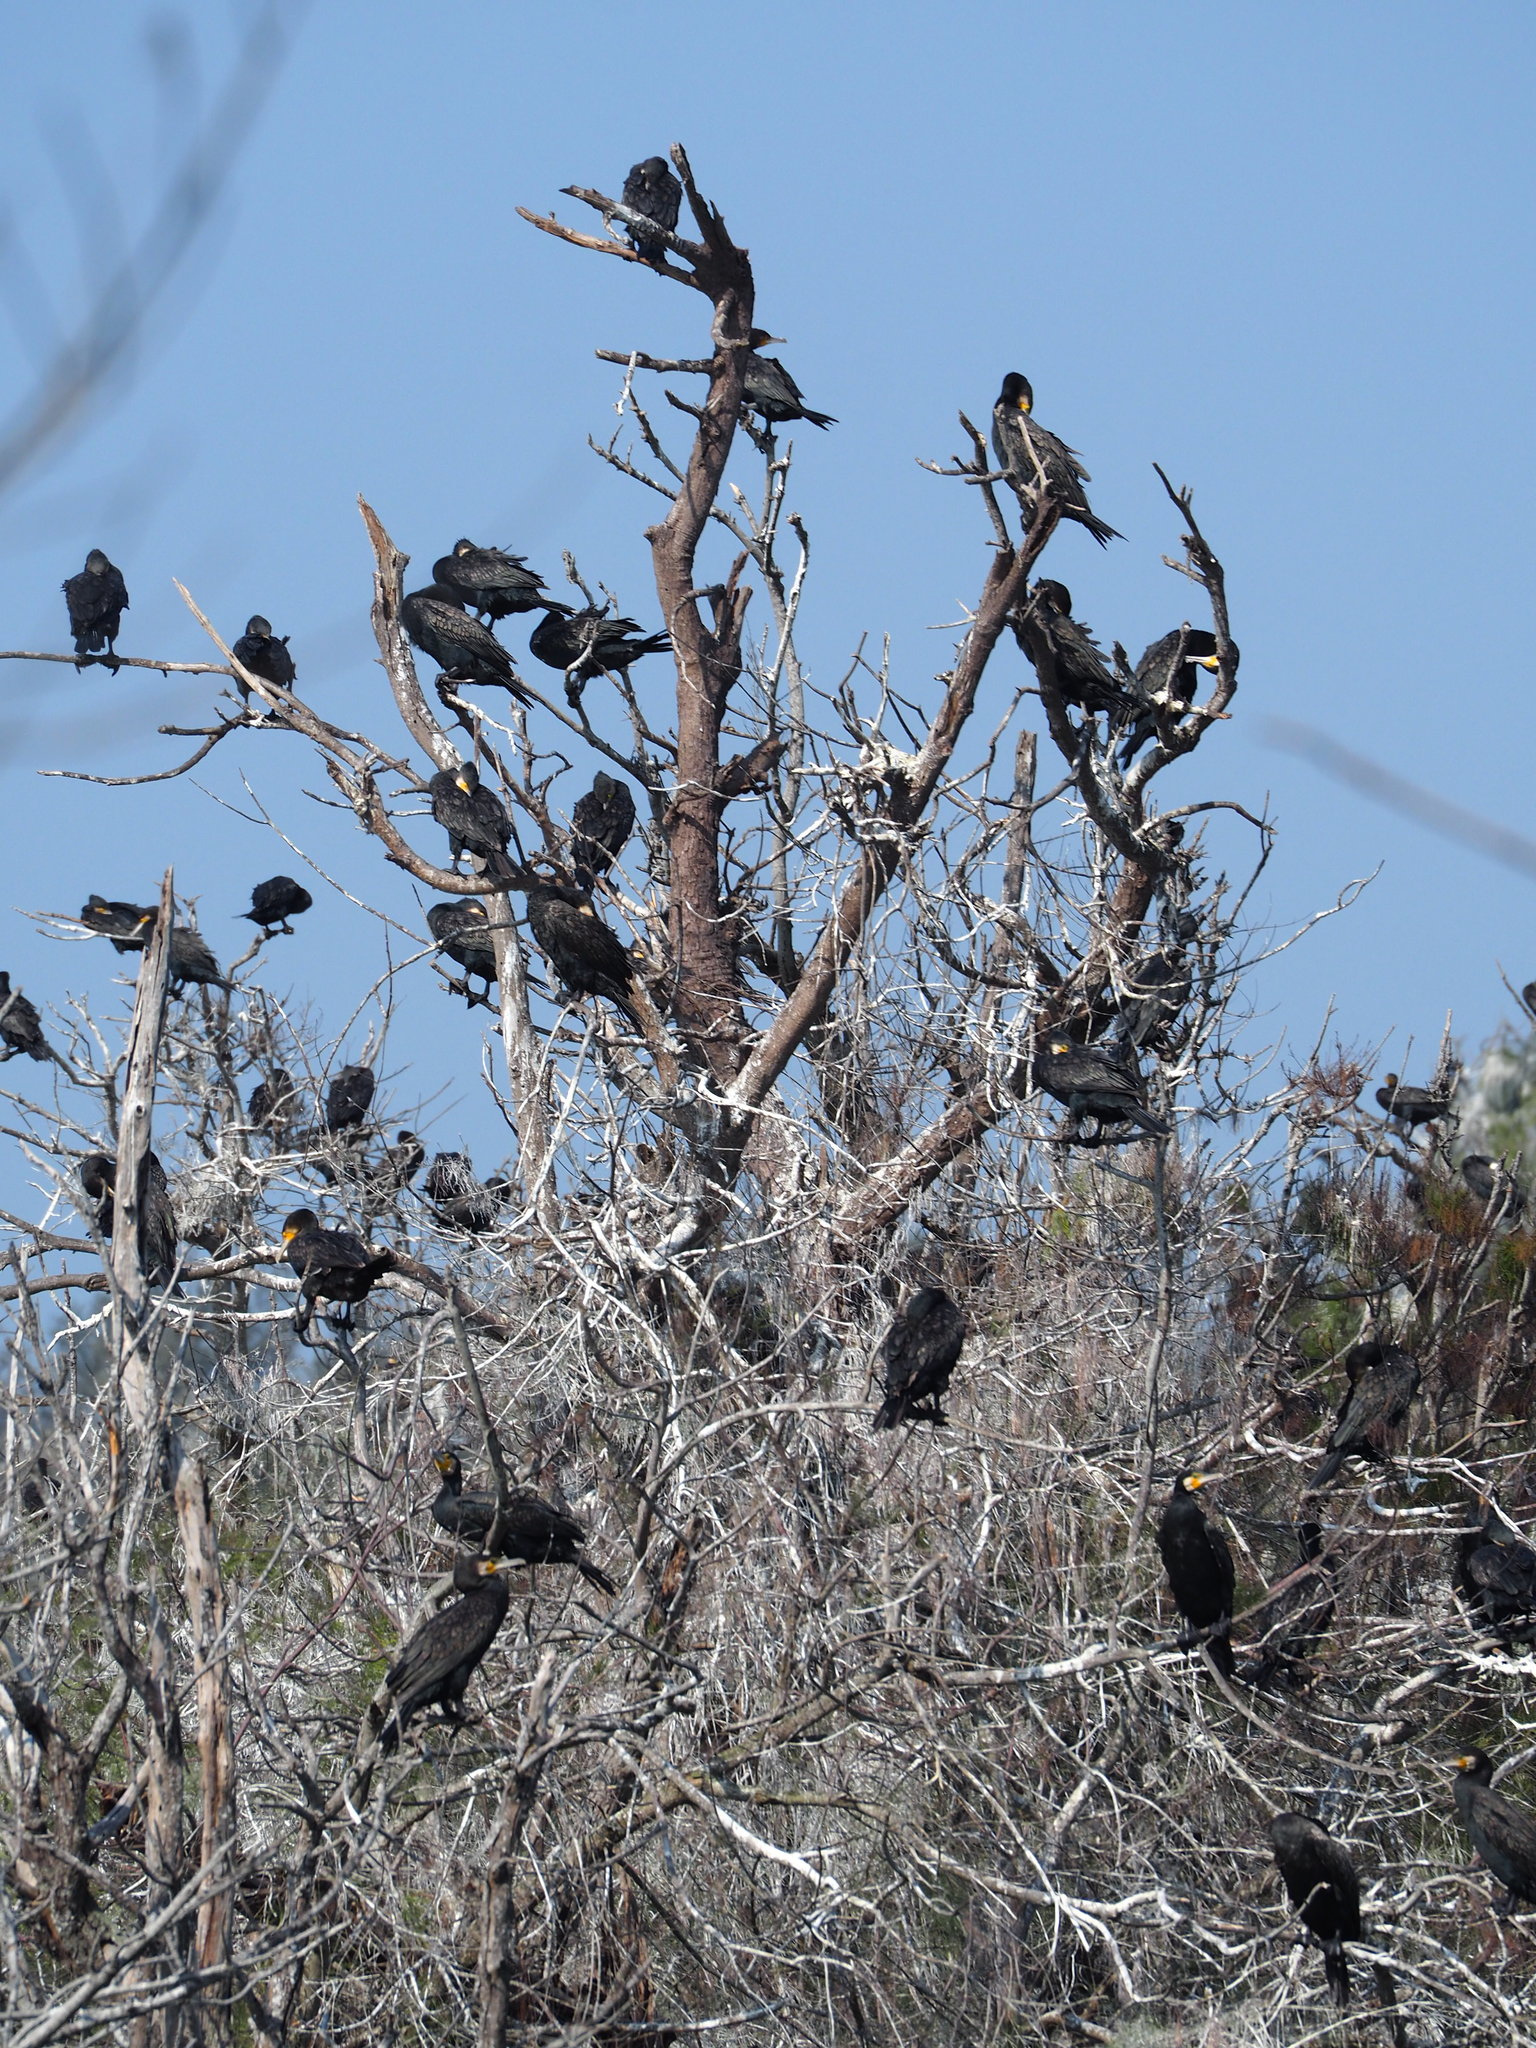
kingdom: Animalia
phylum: Chordata
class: Aves
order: Suliformes
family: Phalacrocoracidae
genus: Phalacrocorax
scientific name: Phalacrocorax carbo
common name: Great cormorant
